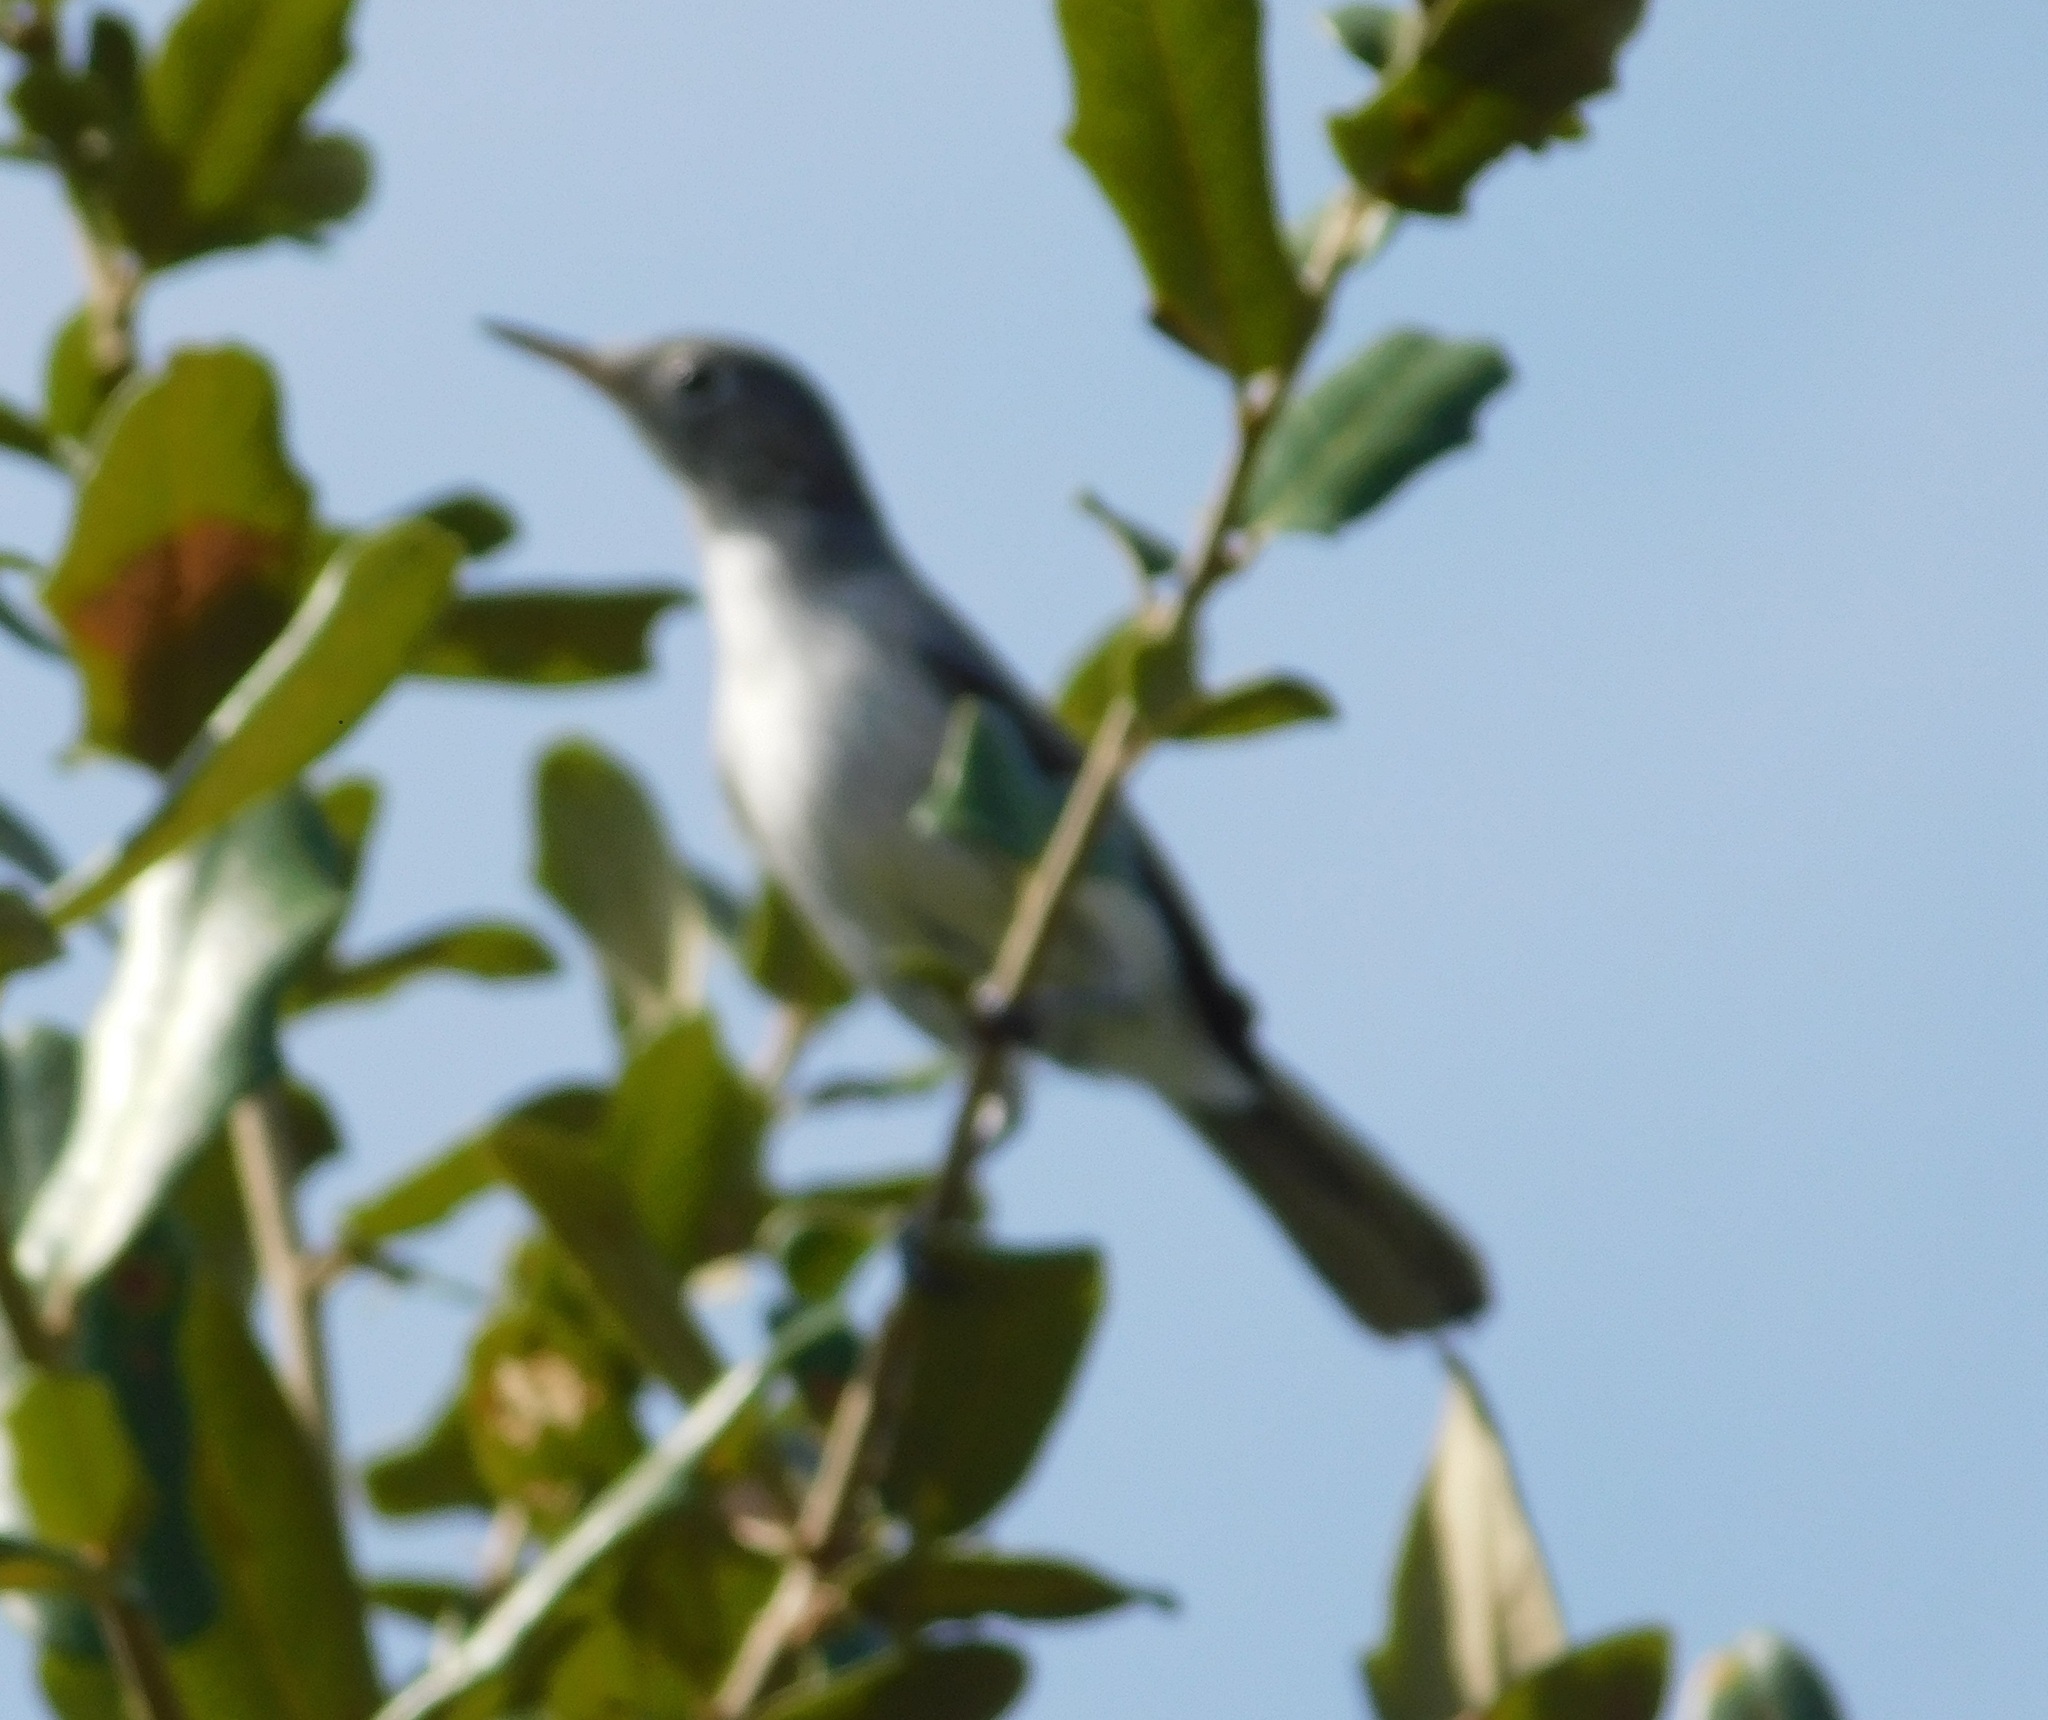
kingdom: Animalia
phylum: Chordata
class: Aves
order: Passeriformes
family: Polioptilidae
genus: Polioptila
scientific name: Polioptila caerulea
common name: Blue-gray gnatcatcher
